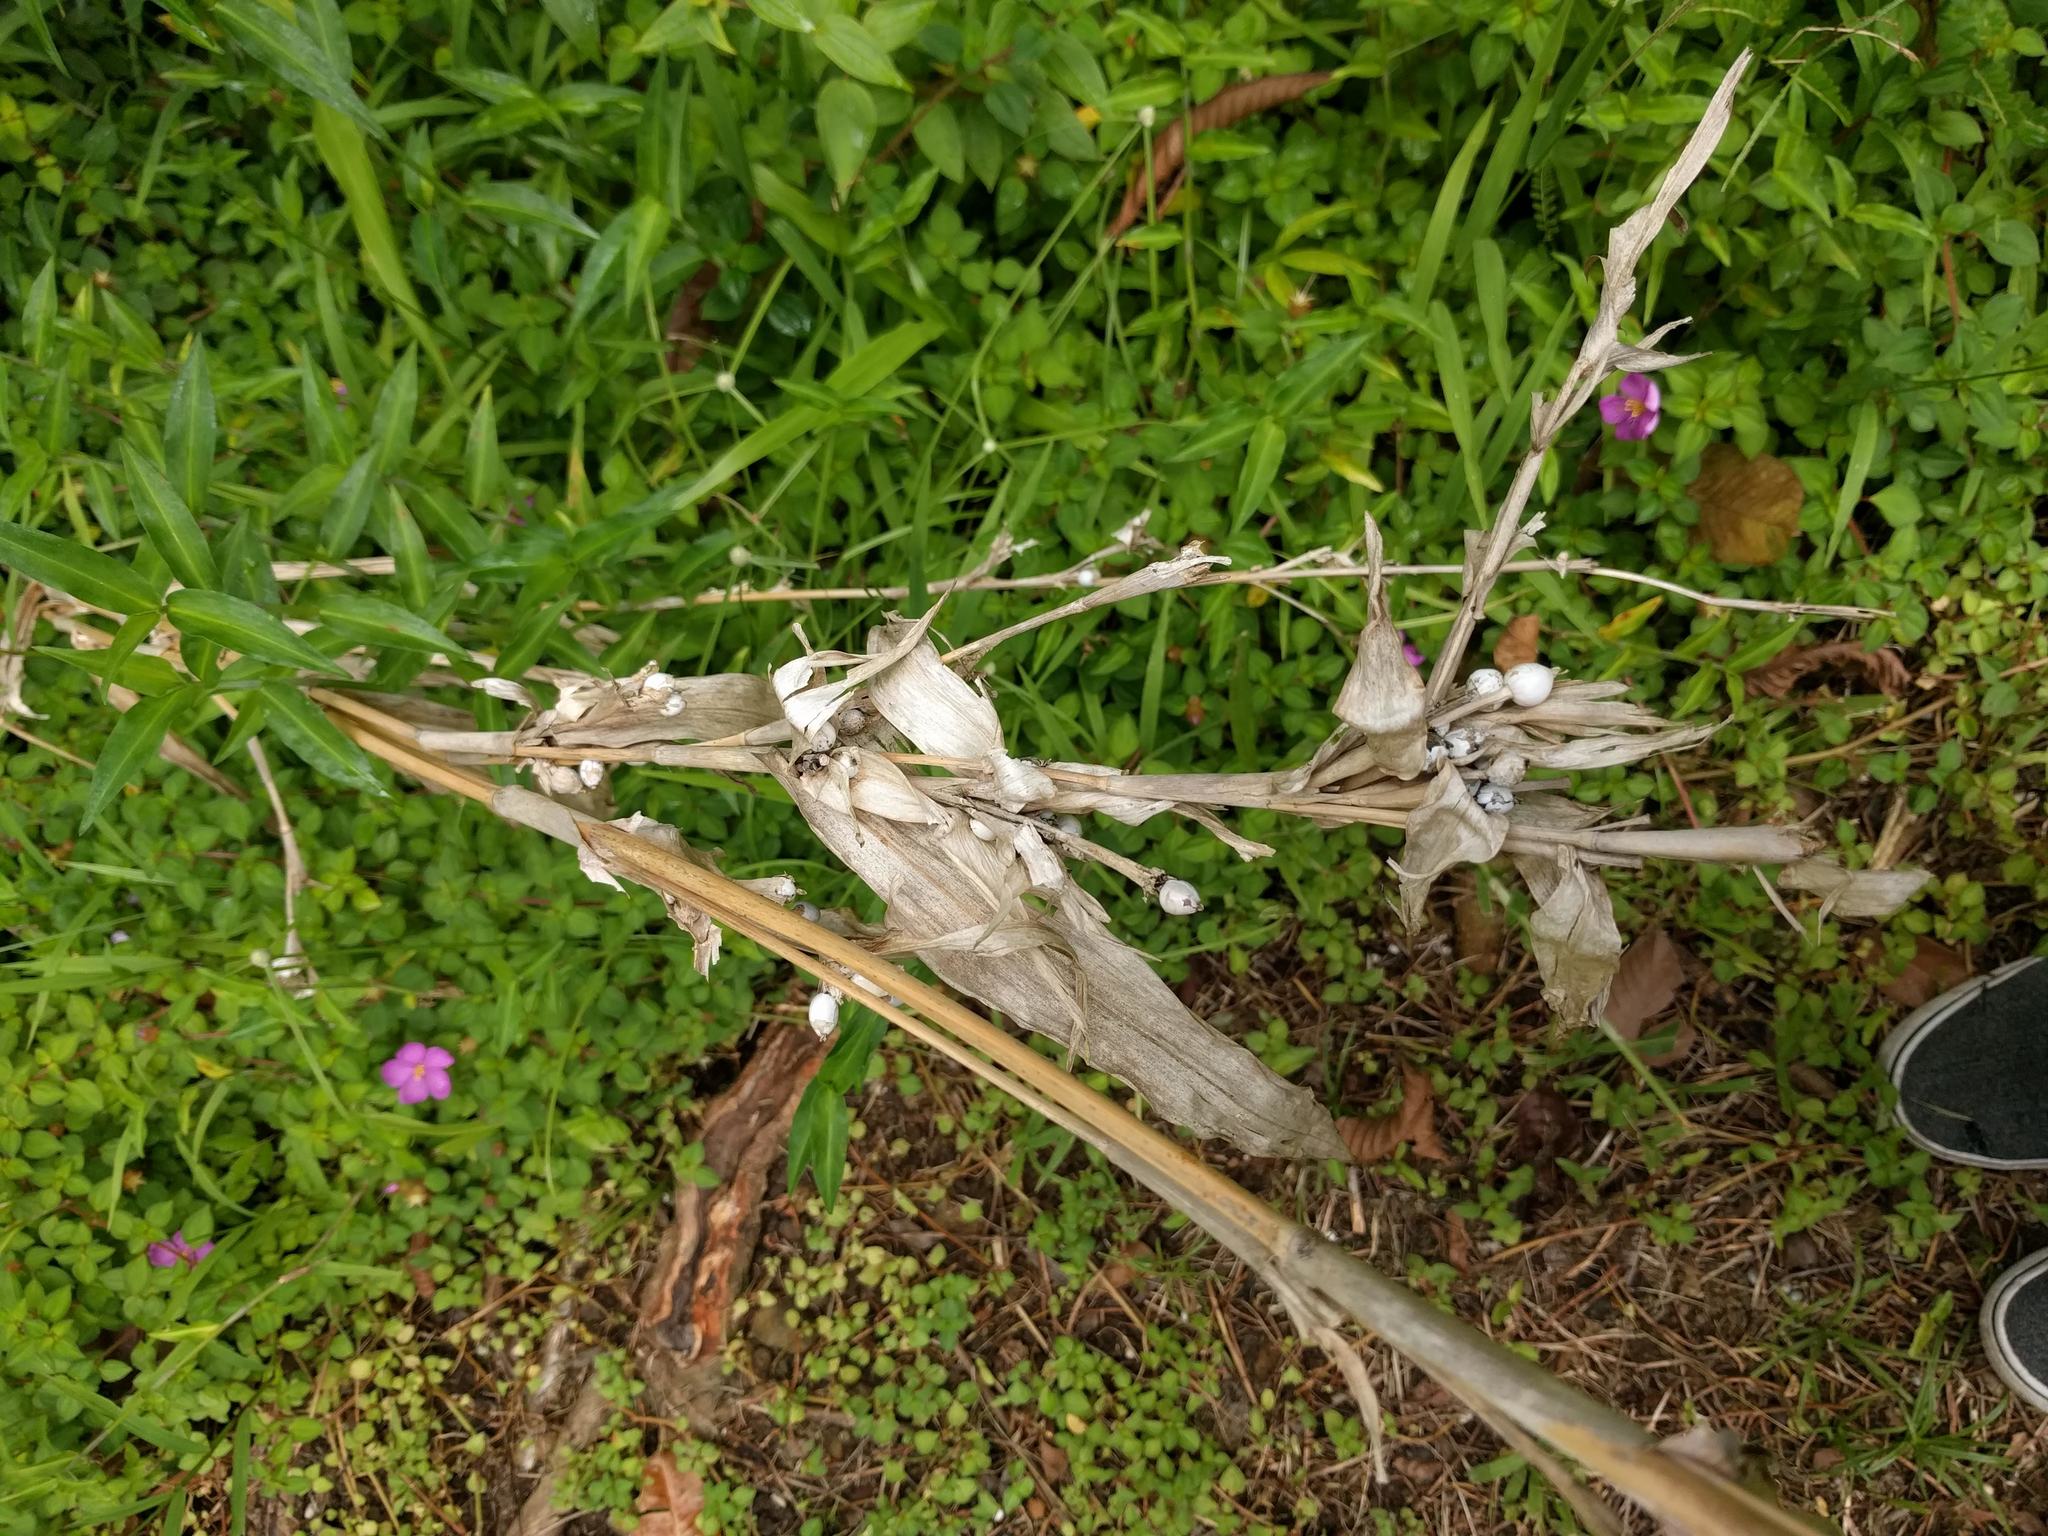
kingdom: Plantae
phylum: Tracheophyta
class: Liliopsida
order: Poales
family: Poaceae
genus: Coix
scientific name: Coix lacryma-jobi
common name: Job's tears
